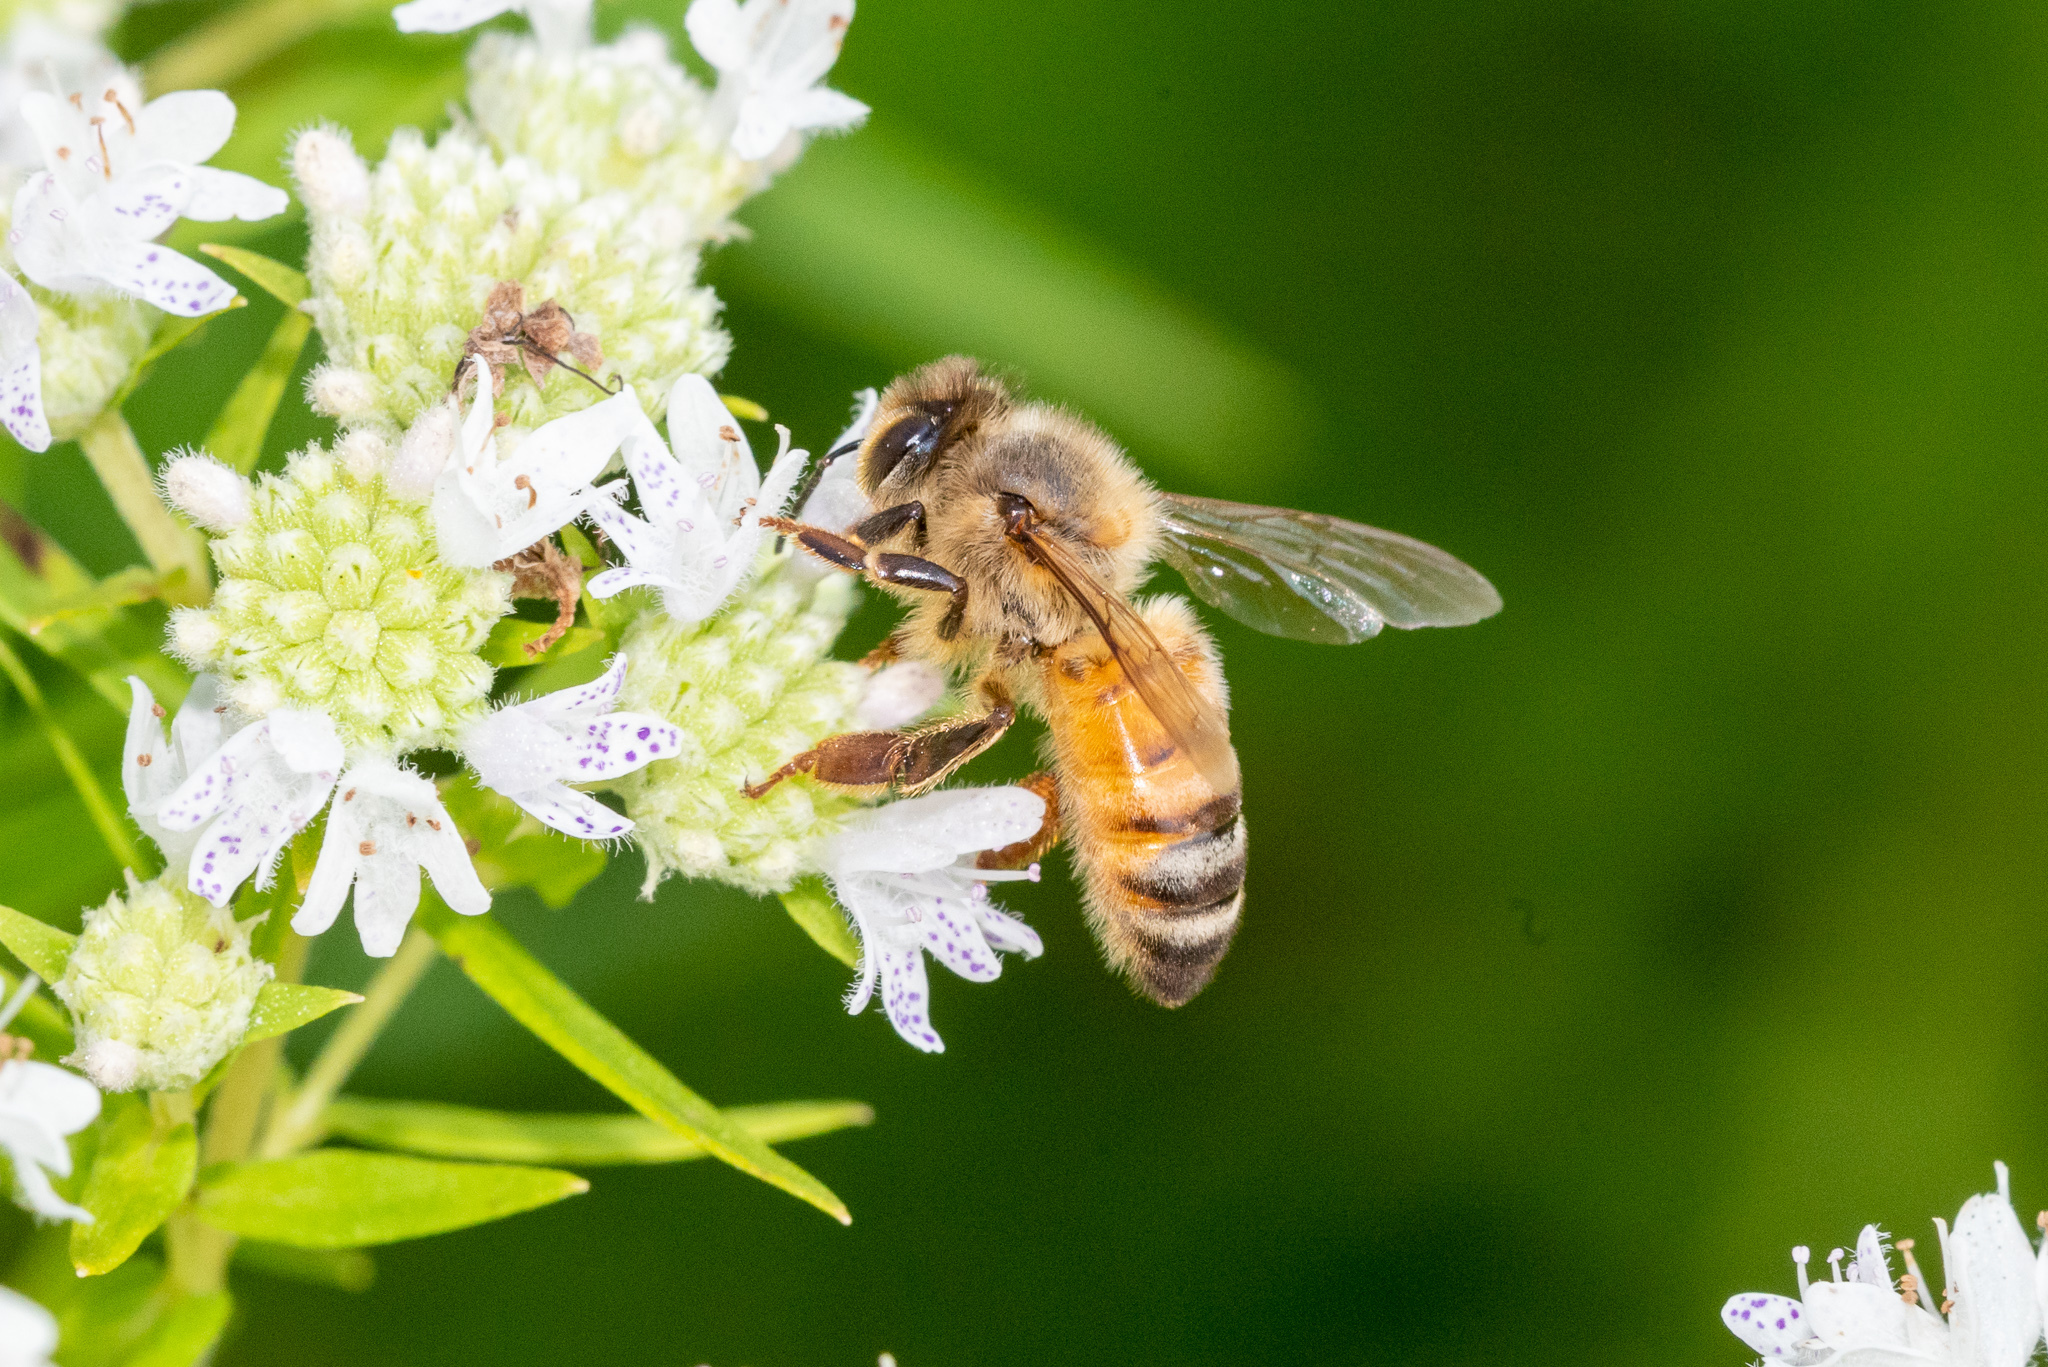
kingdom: Animalia
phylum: Arthropoda
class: Insecta
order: Hymenoptera
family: Apidae
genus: Apis
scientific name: Apis mellifera
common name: Honey bee
